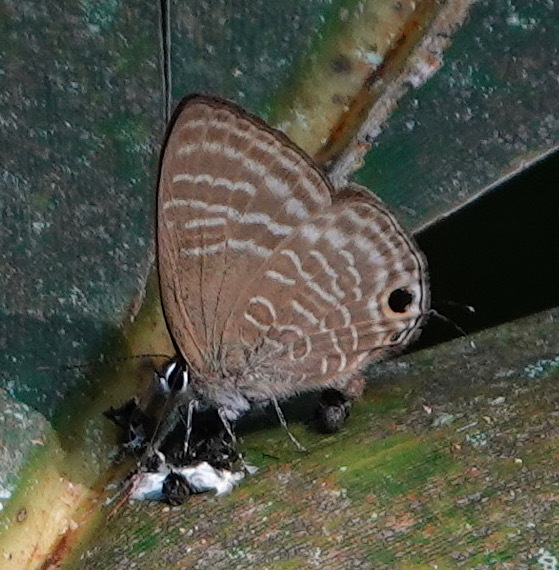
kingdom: Animalia
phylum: Arthropoda
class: Insecta
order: Lepidoptera
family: Lycaenidae
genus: Nacaduba
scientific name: Nacaduba pactolus
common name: Large fourline blue
